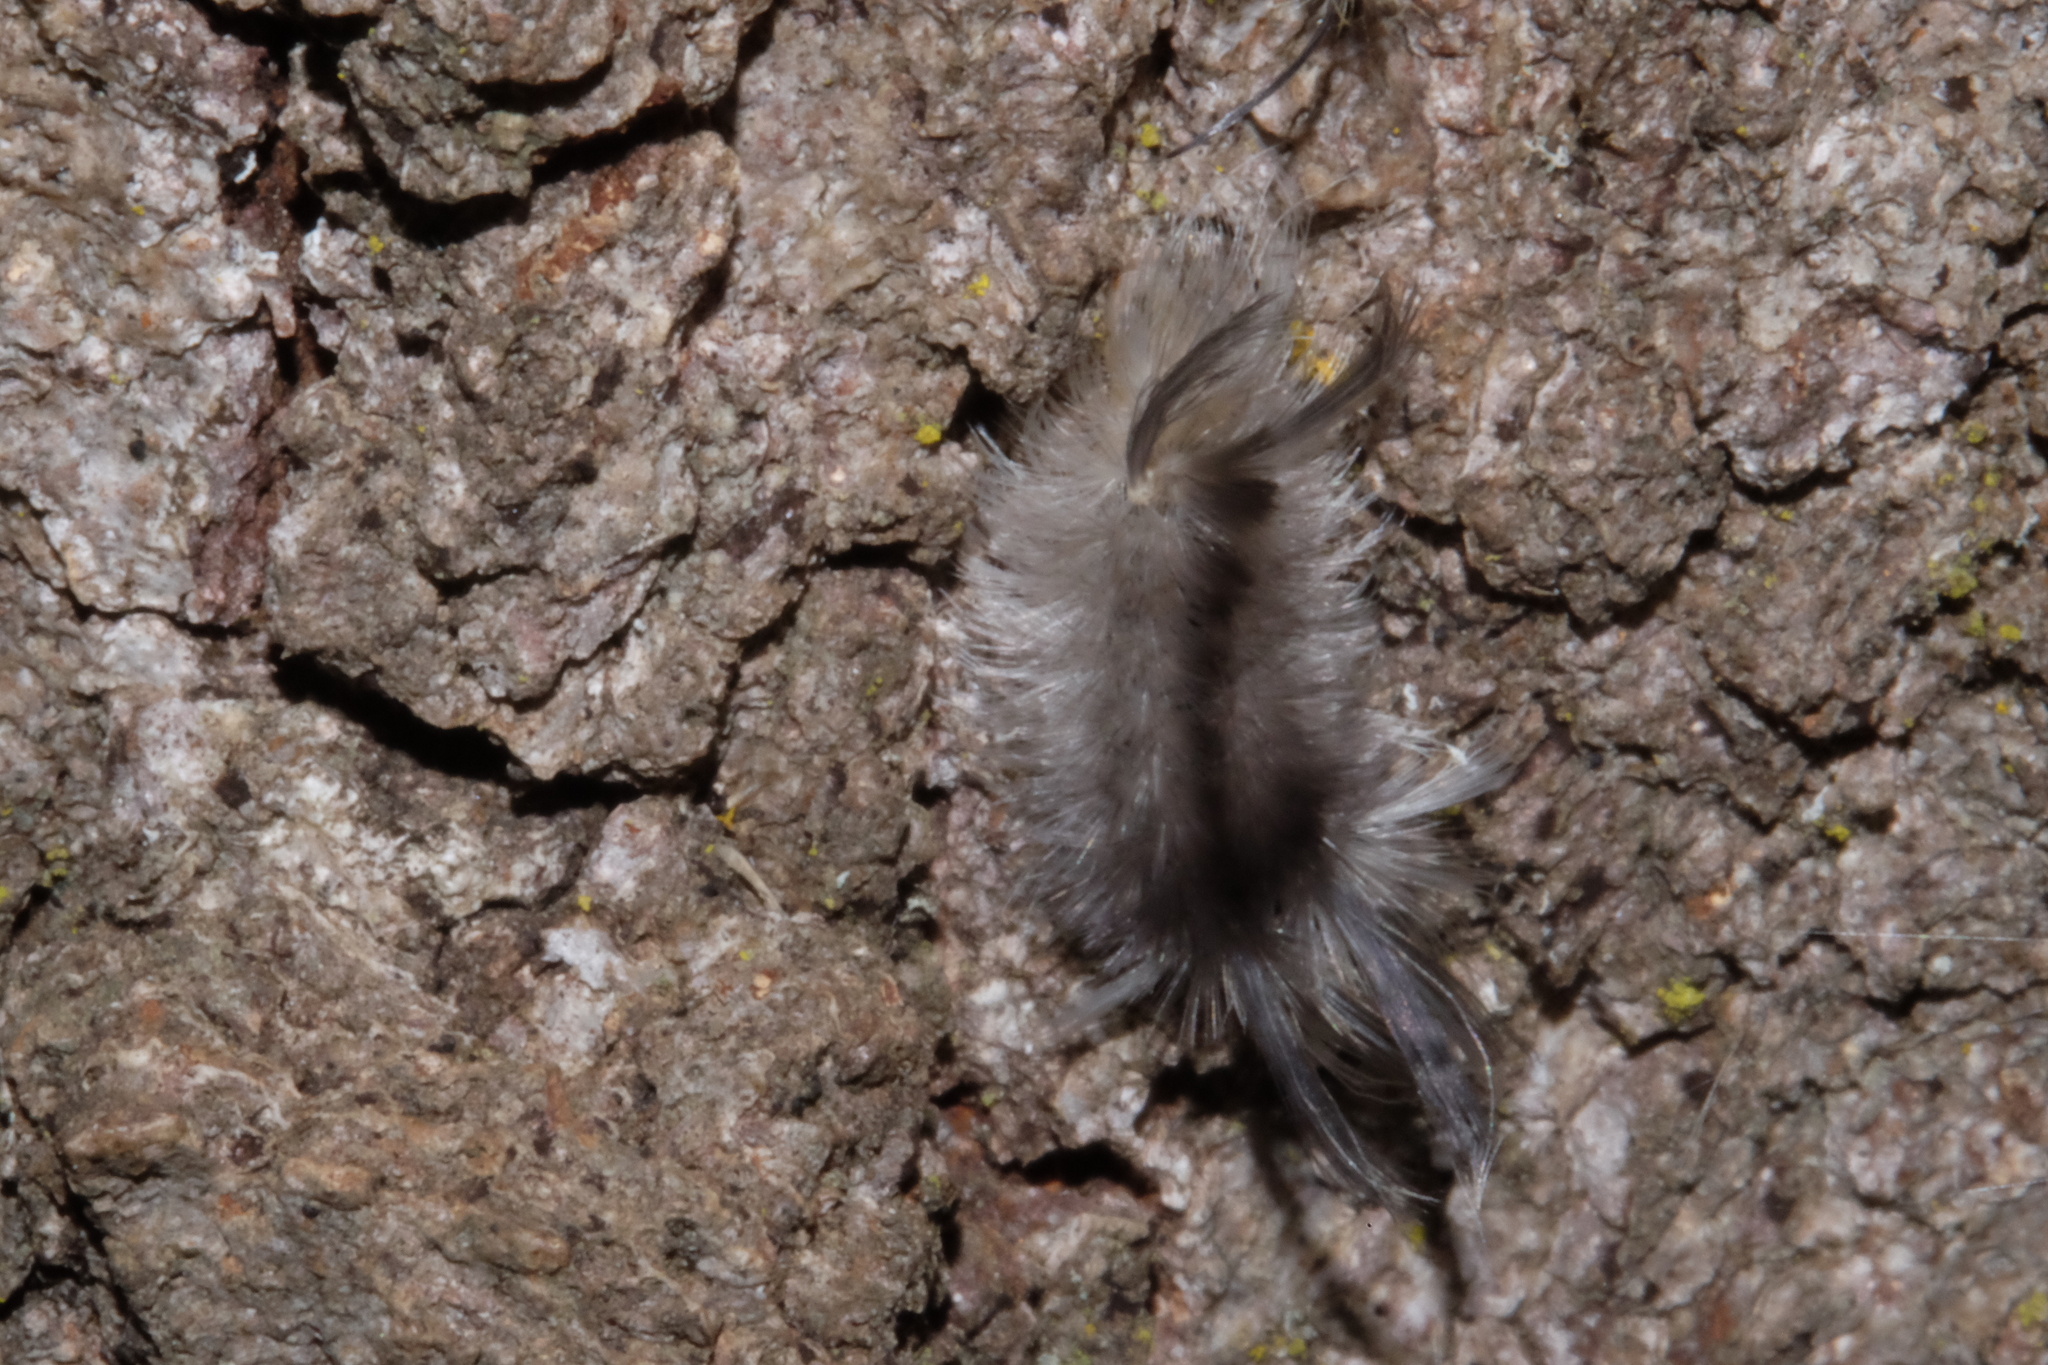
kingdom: Animalia
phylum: Arthropoda
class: Insecta
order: Lepidoptera
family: Erebidae
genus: Halysidota
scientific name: Halysidota tessellaris
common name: Banded tussock moth
